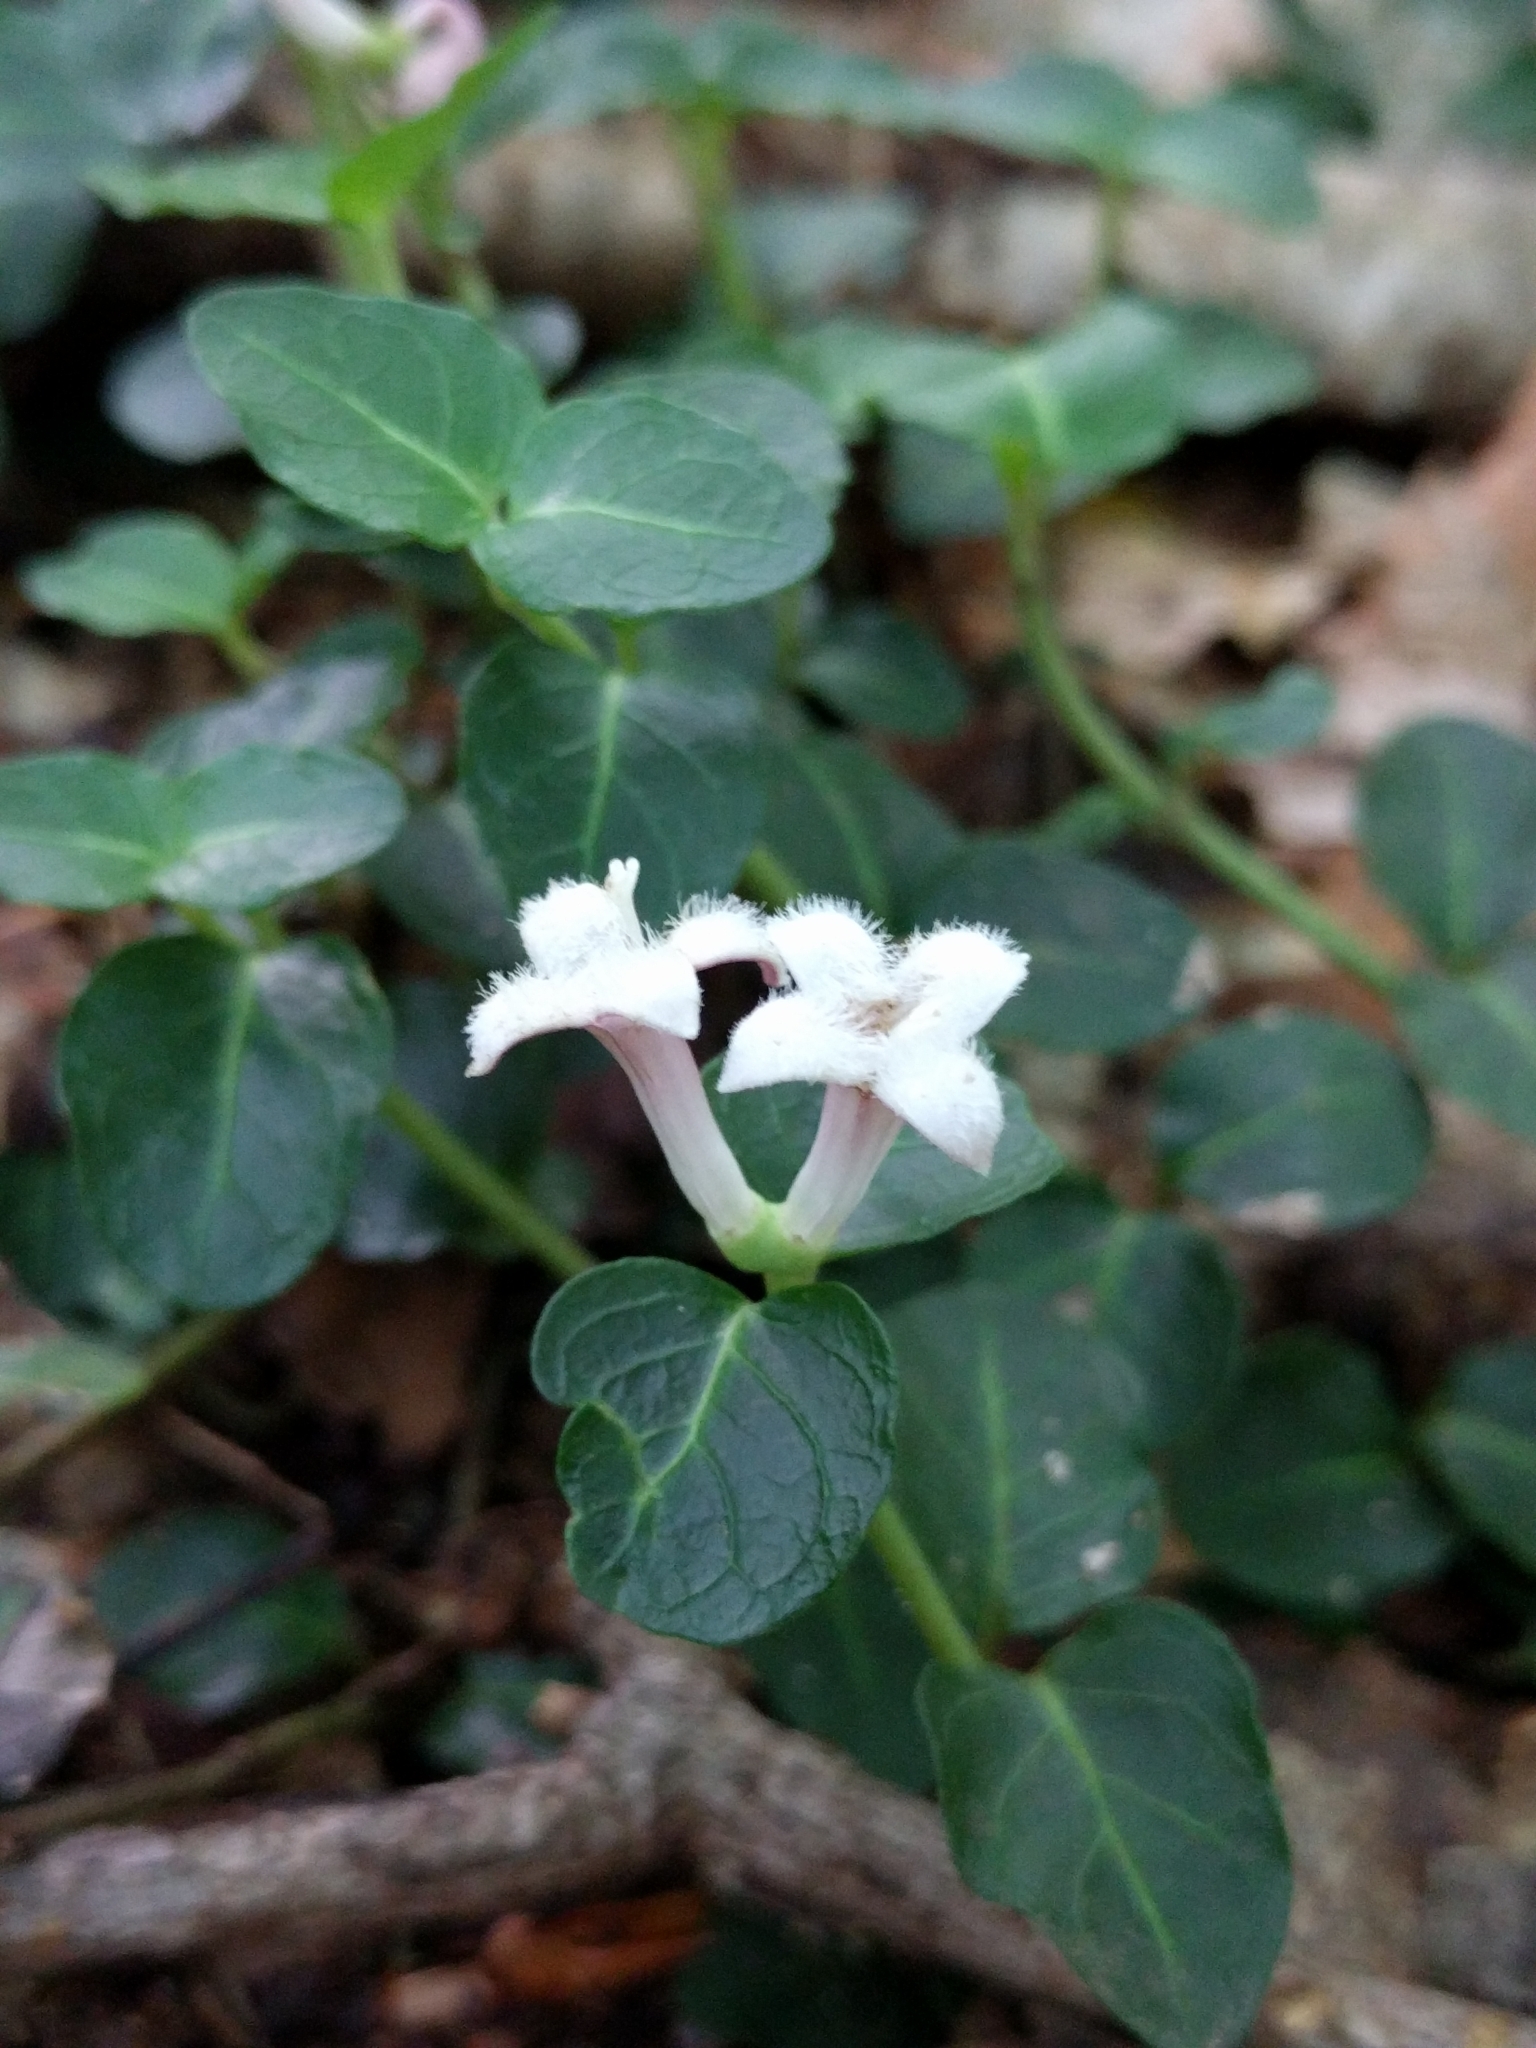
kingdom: Plantae
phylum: Tracheophyta
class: Magnoliopsida
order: Gentianales
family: Rubiaceae
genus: Mitchella
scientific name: Mitchella repens
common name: Partridge-berry
